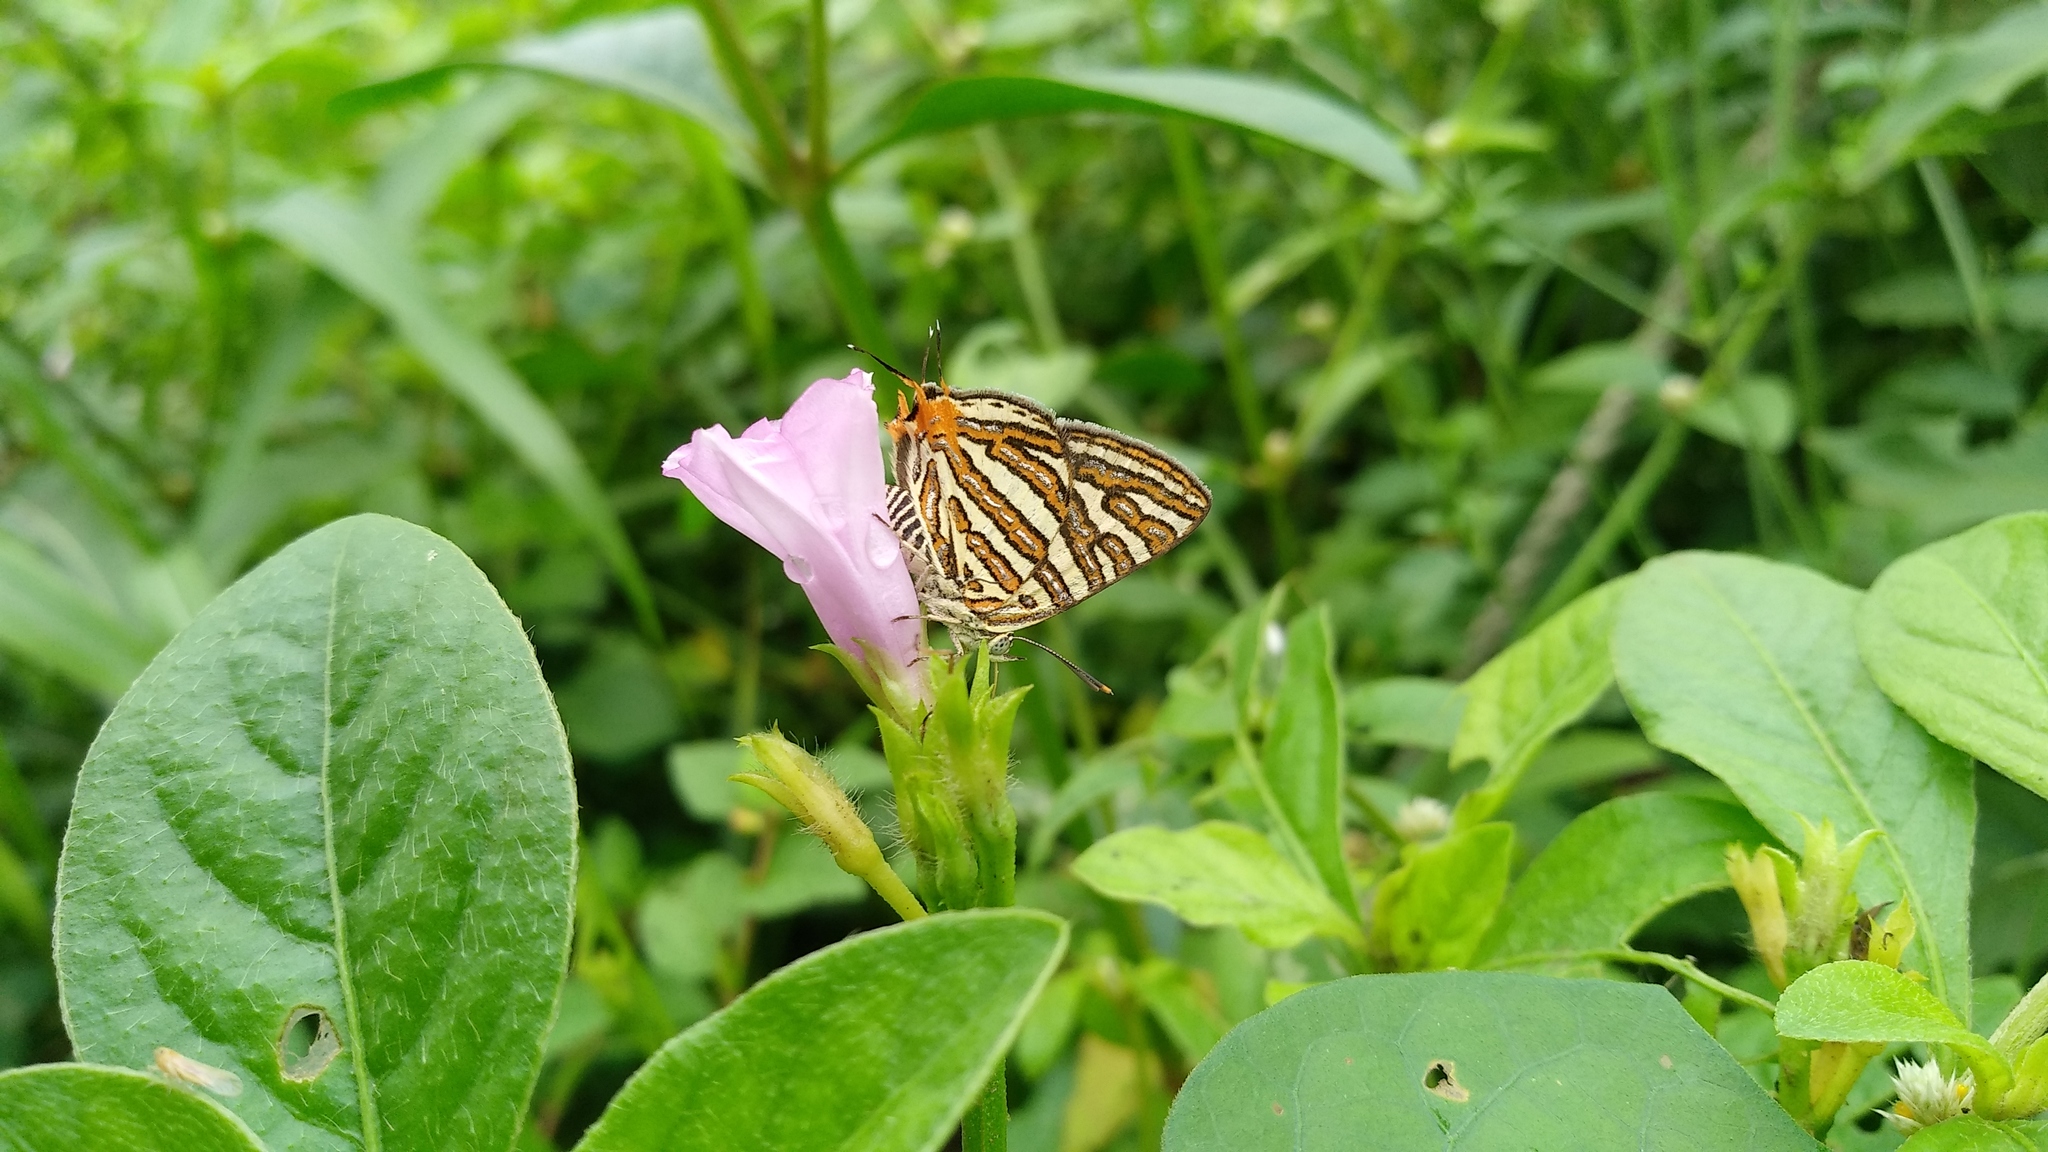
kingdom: Animalia
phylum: Arthropoda
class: Insecta
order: Lepidoptera
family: Lycaenidae
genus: Cigaritis
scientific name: Cigaritis vulcanus
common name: Common silverline
